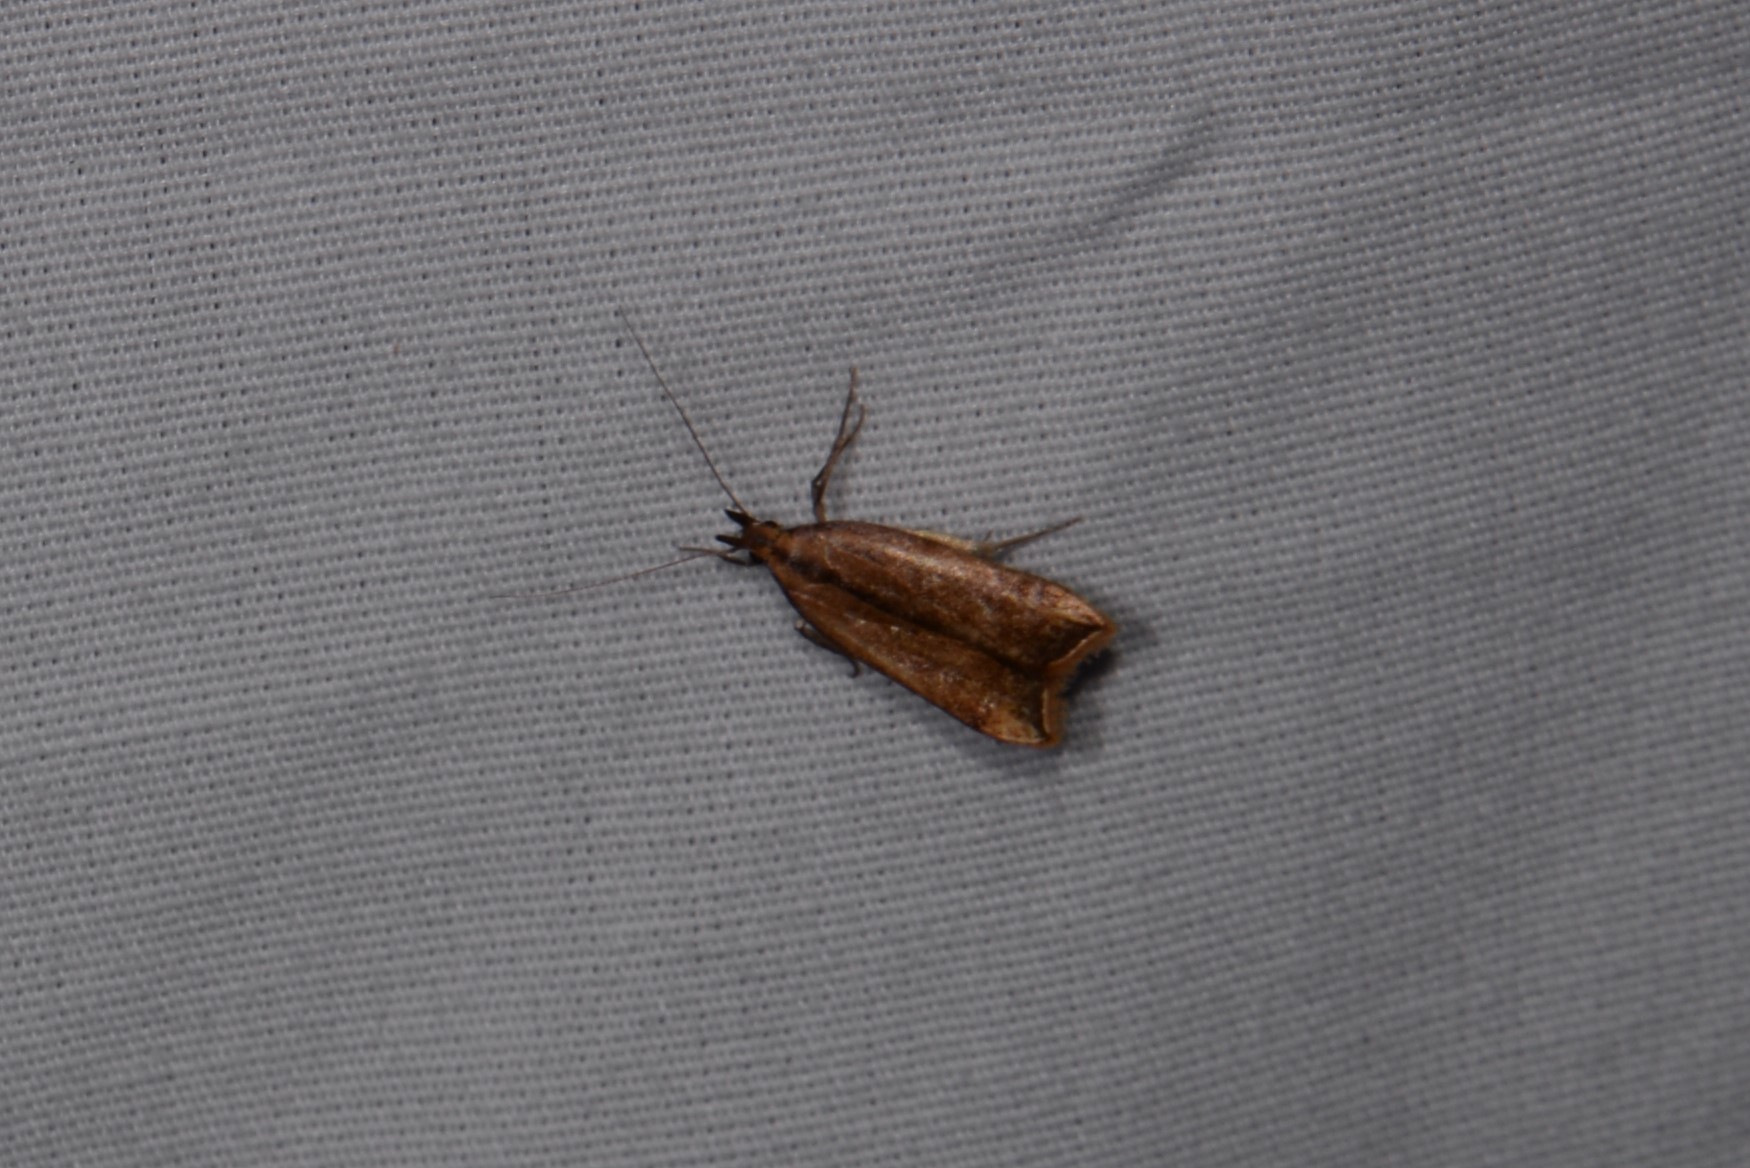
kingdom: Animalia
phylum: Arthropoda
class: Insecta
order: Lepidoptera
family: Gelechiidae
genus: Dichomeris
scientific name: Dichomeris heriguronis
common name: Black-edged dichomeris moth
